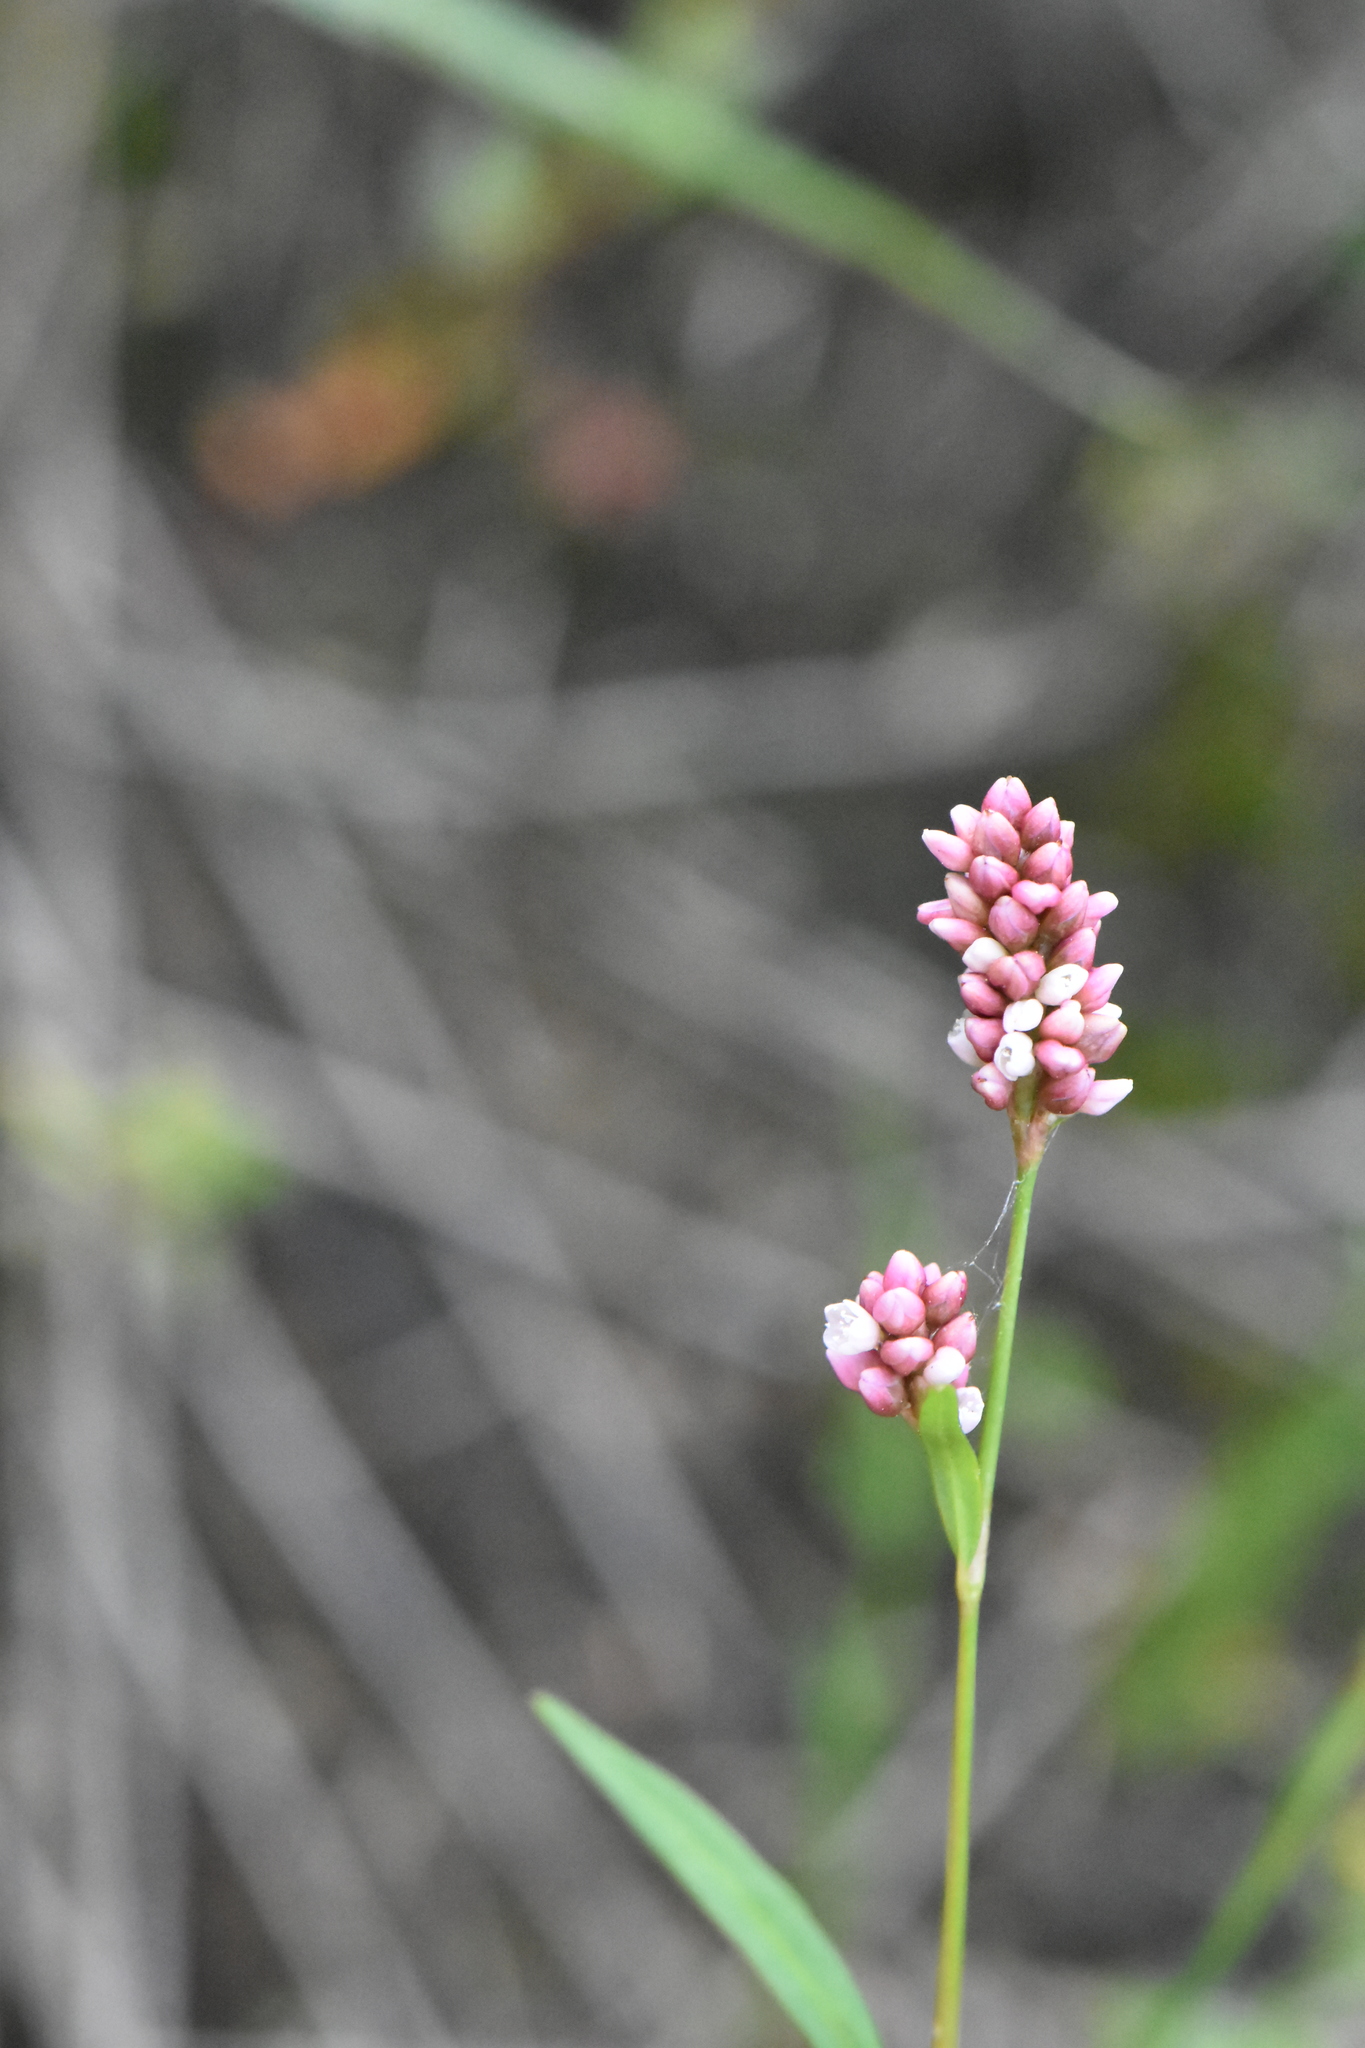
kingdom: Plantae
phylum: Tracheophyta
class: Magnoliopsida
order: Caryophyllales
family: Polygonaceae
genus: Persicaria
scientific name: Persicaria maculosa
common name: Redshank
